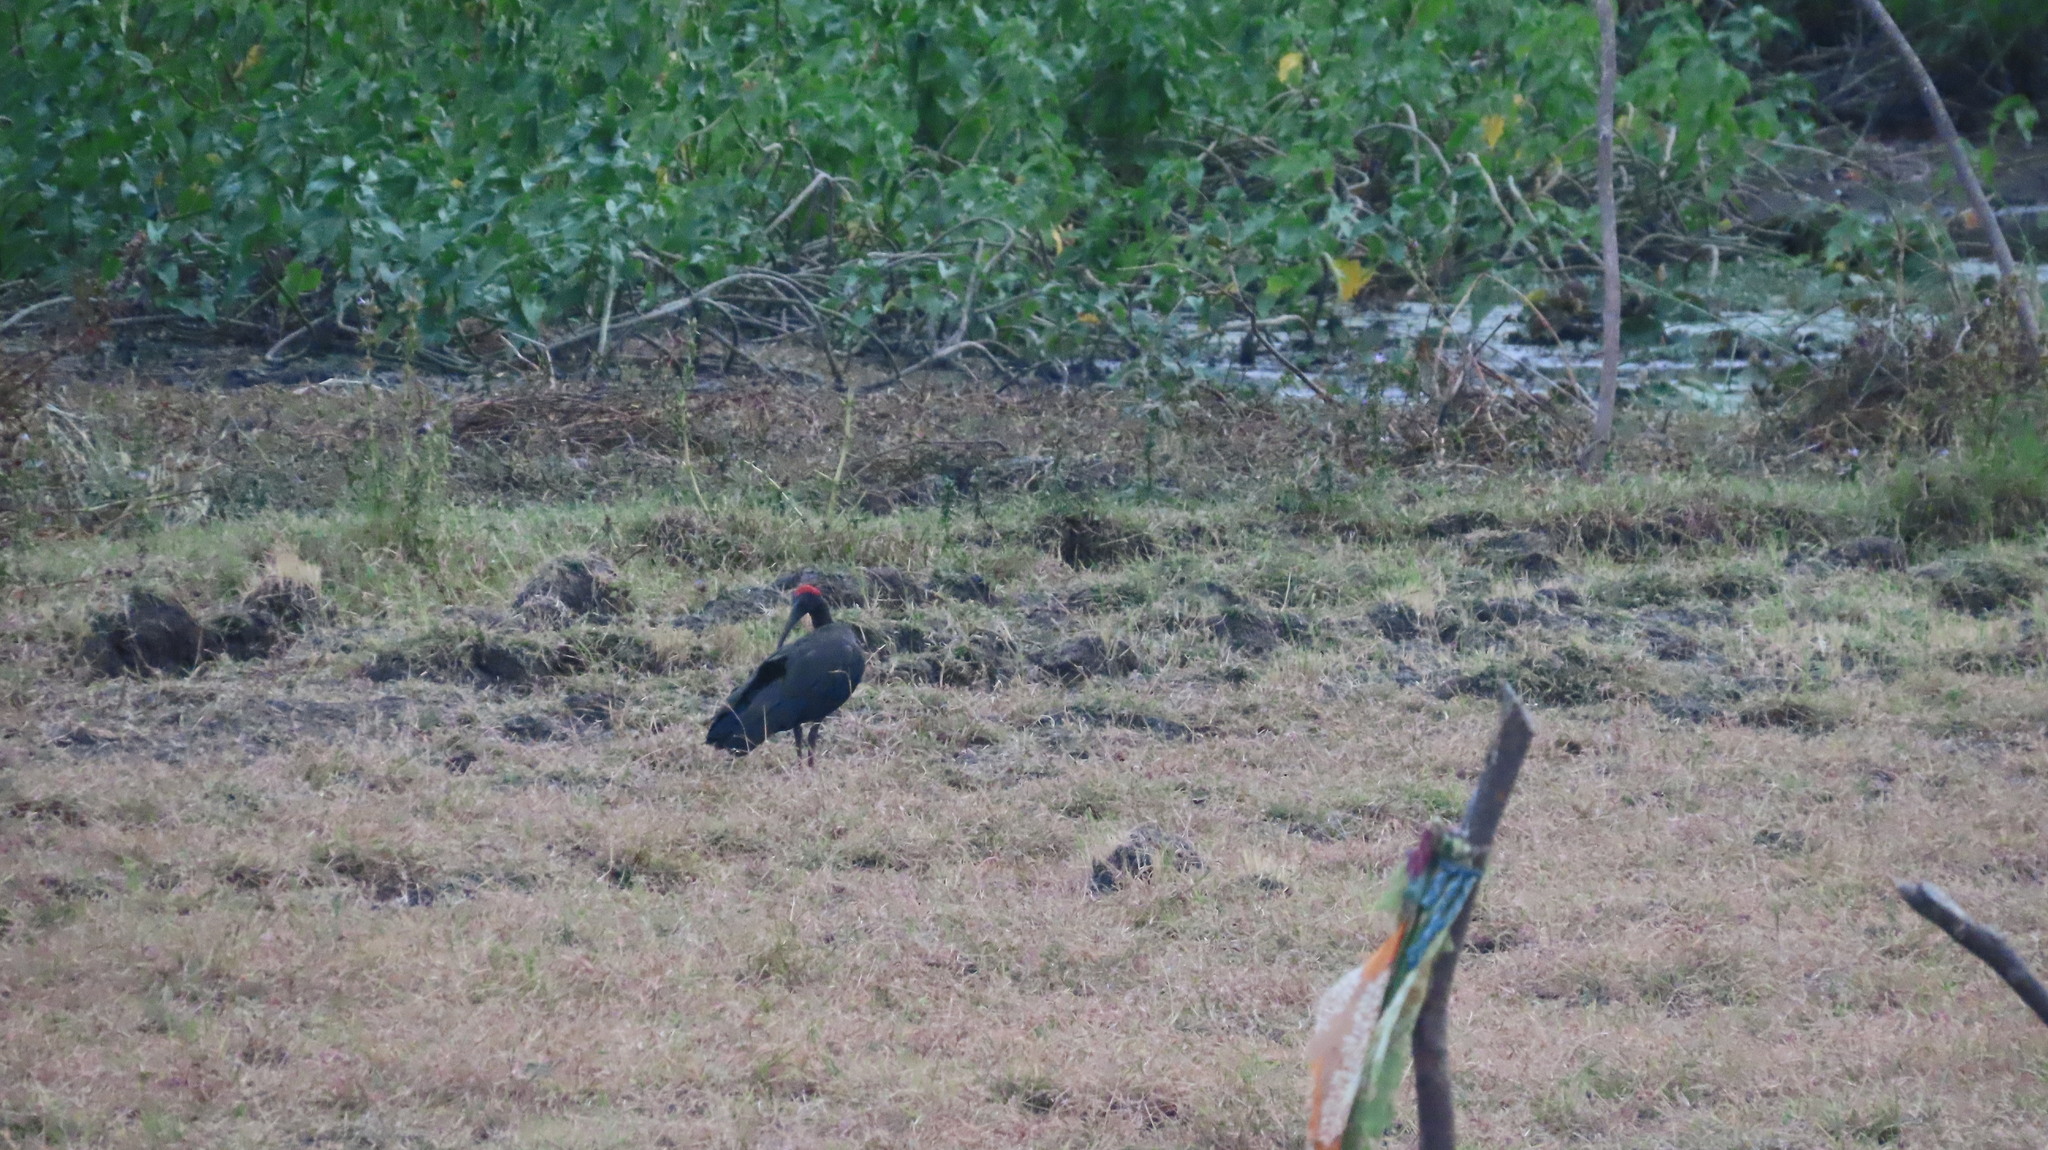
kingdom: Animalia
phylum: Chordata
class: Aves
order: Pelecaniformes
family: Threskiornithidae
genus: Pseudibis
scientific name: Pseudibis papillosa
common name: Red-naped ibis
